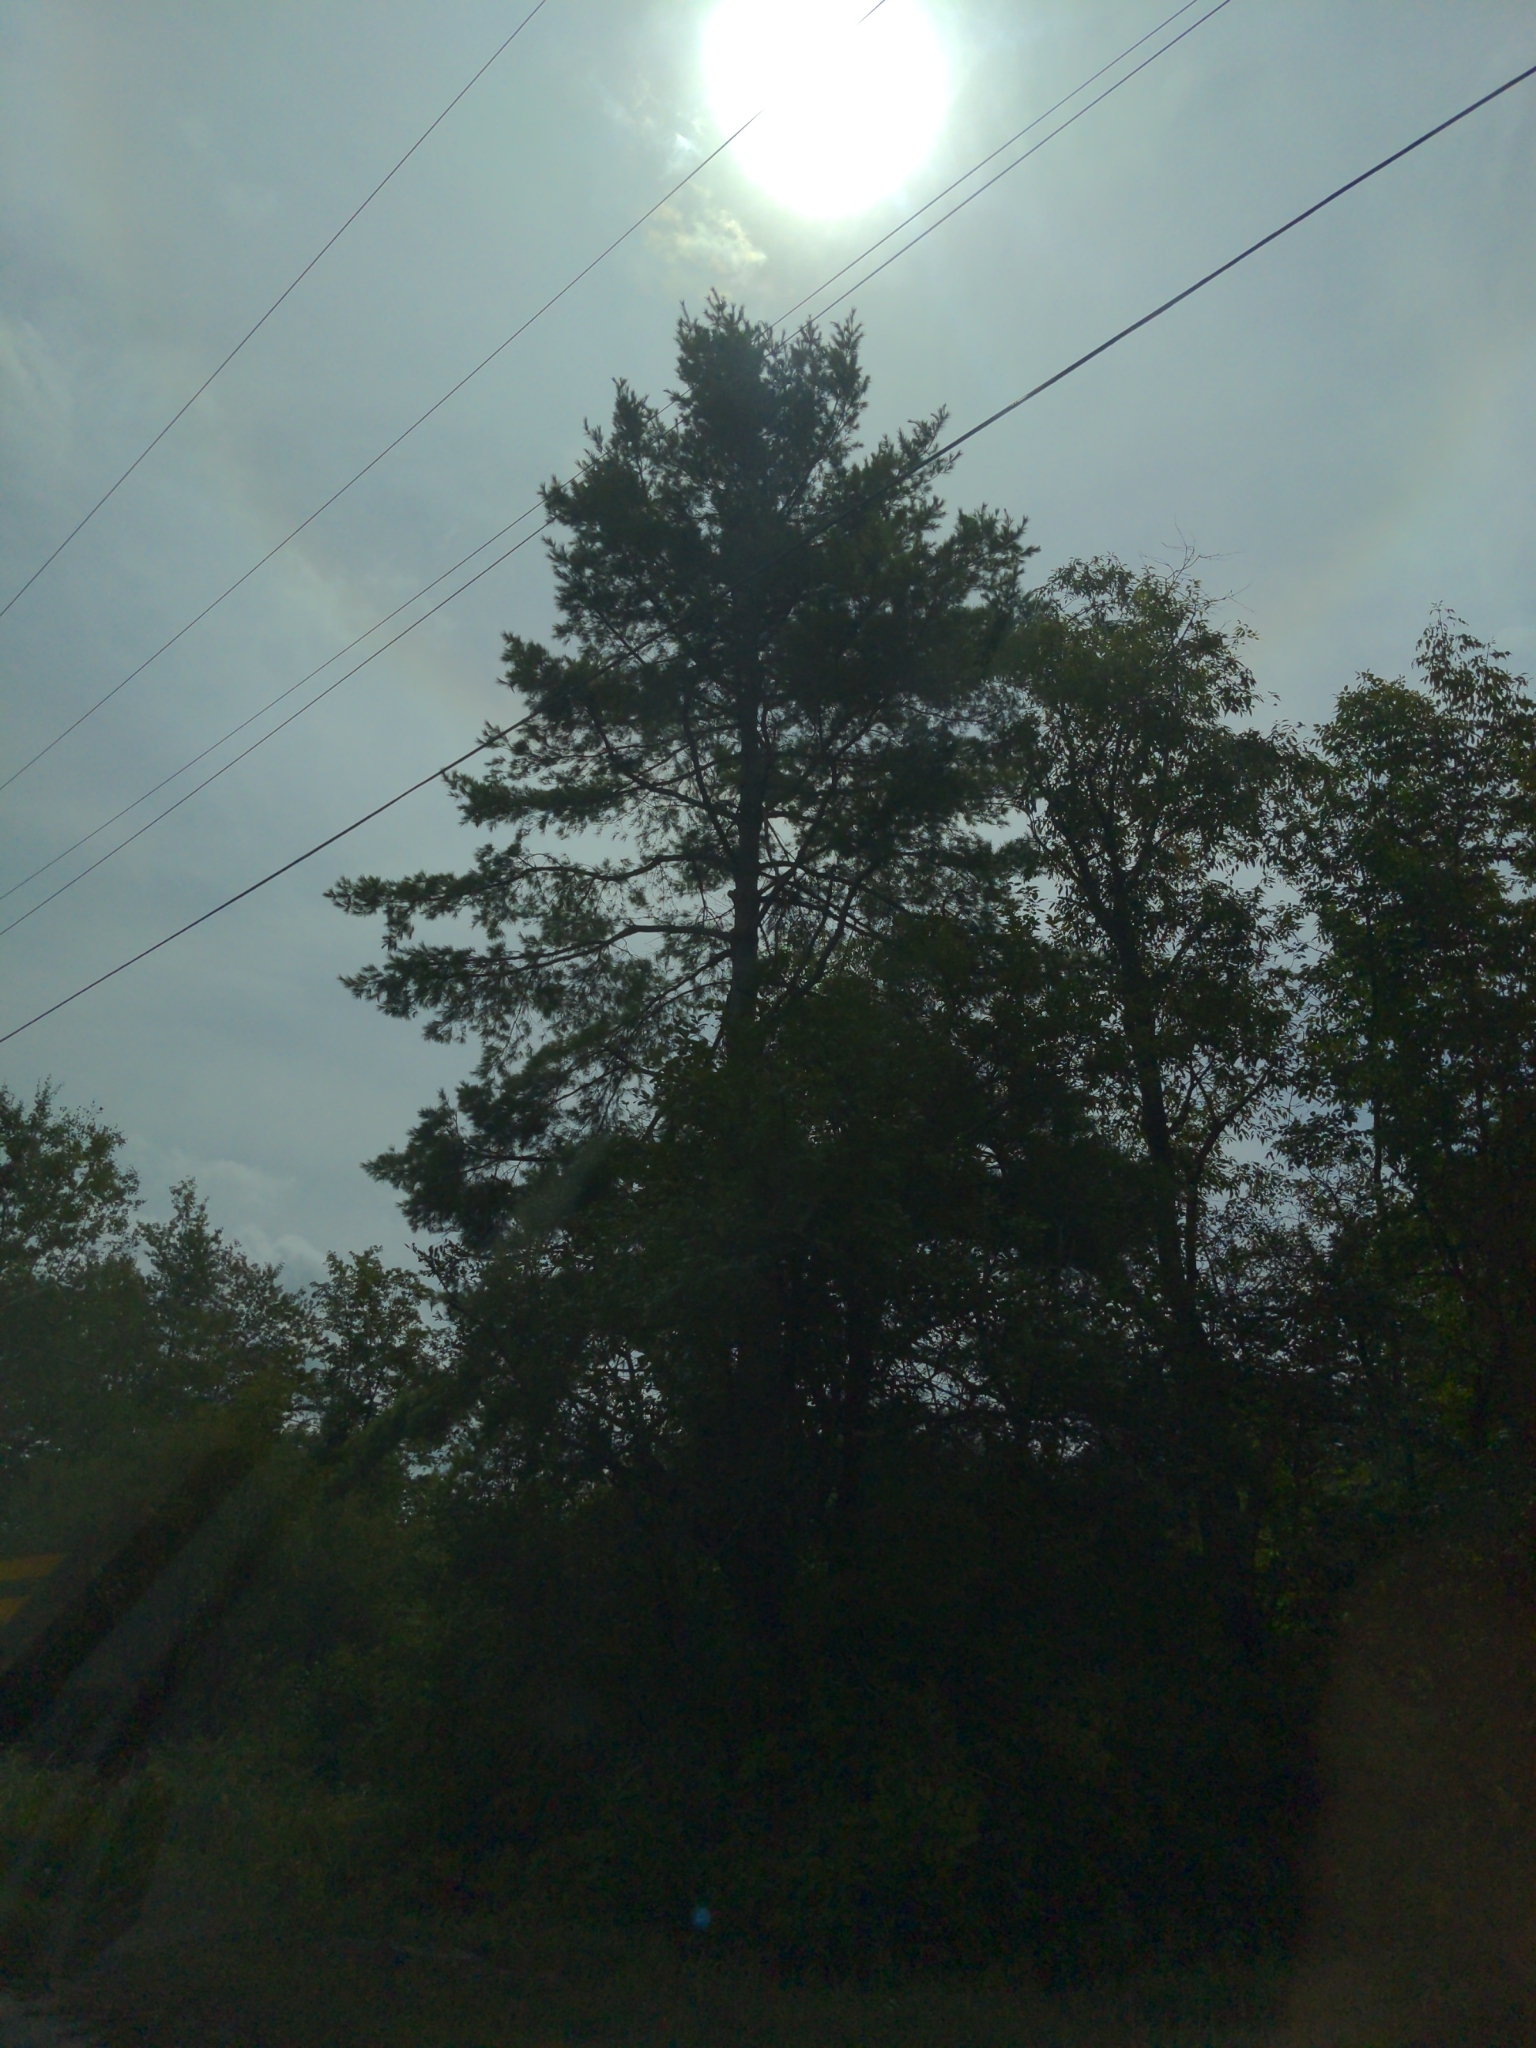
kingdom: Plantae
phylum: Tracheophyta
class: Pinopsida
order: Pinales
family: Pinaceae
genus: Pinus
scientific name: Pinus strobus
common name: Weymouth pine
